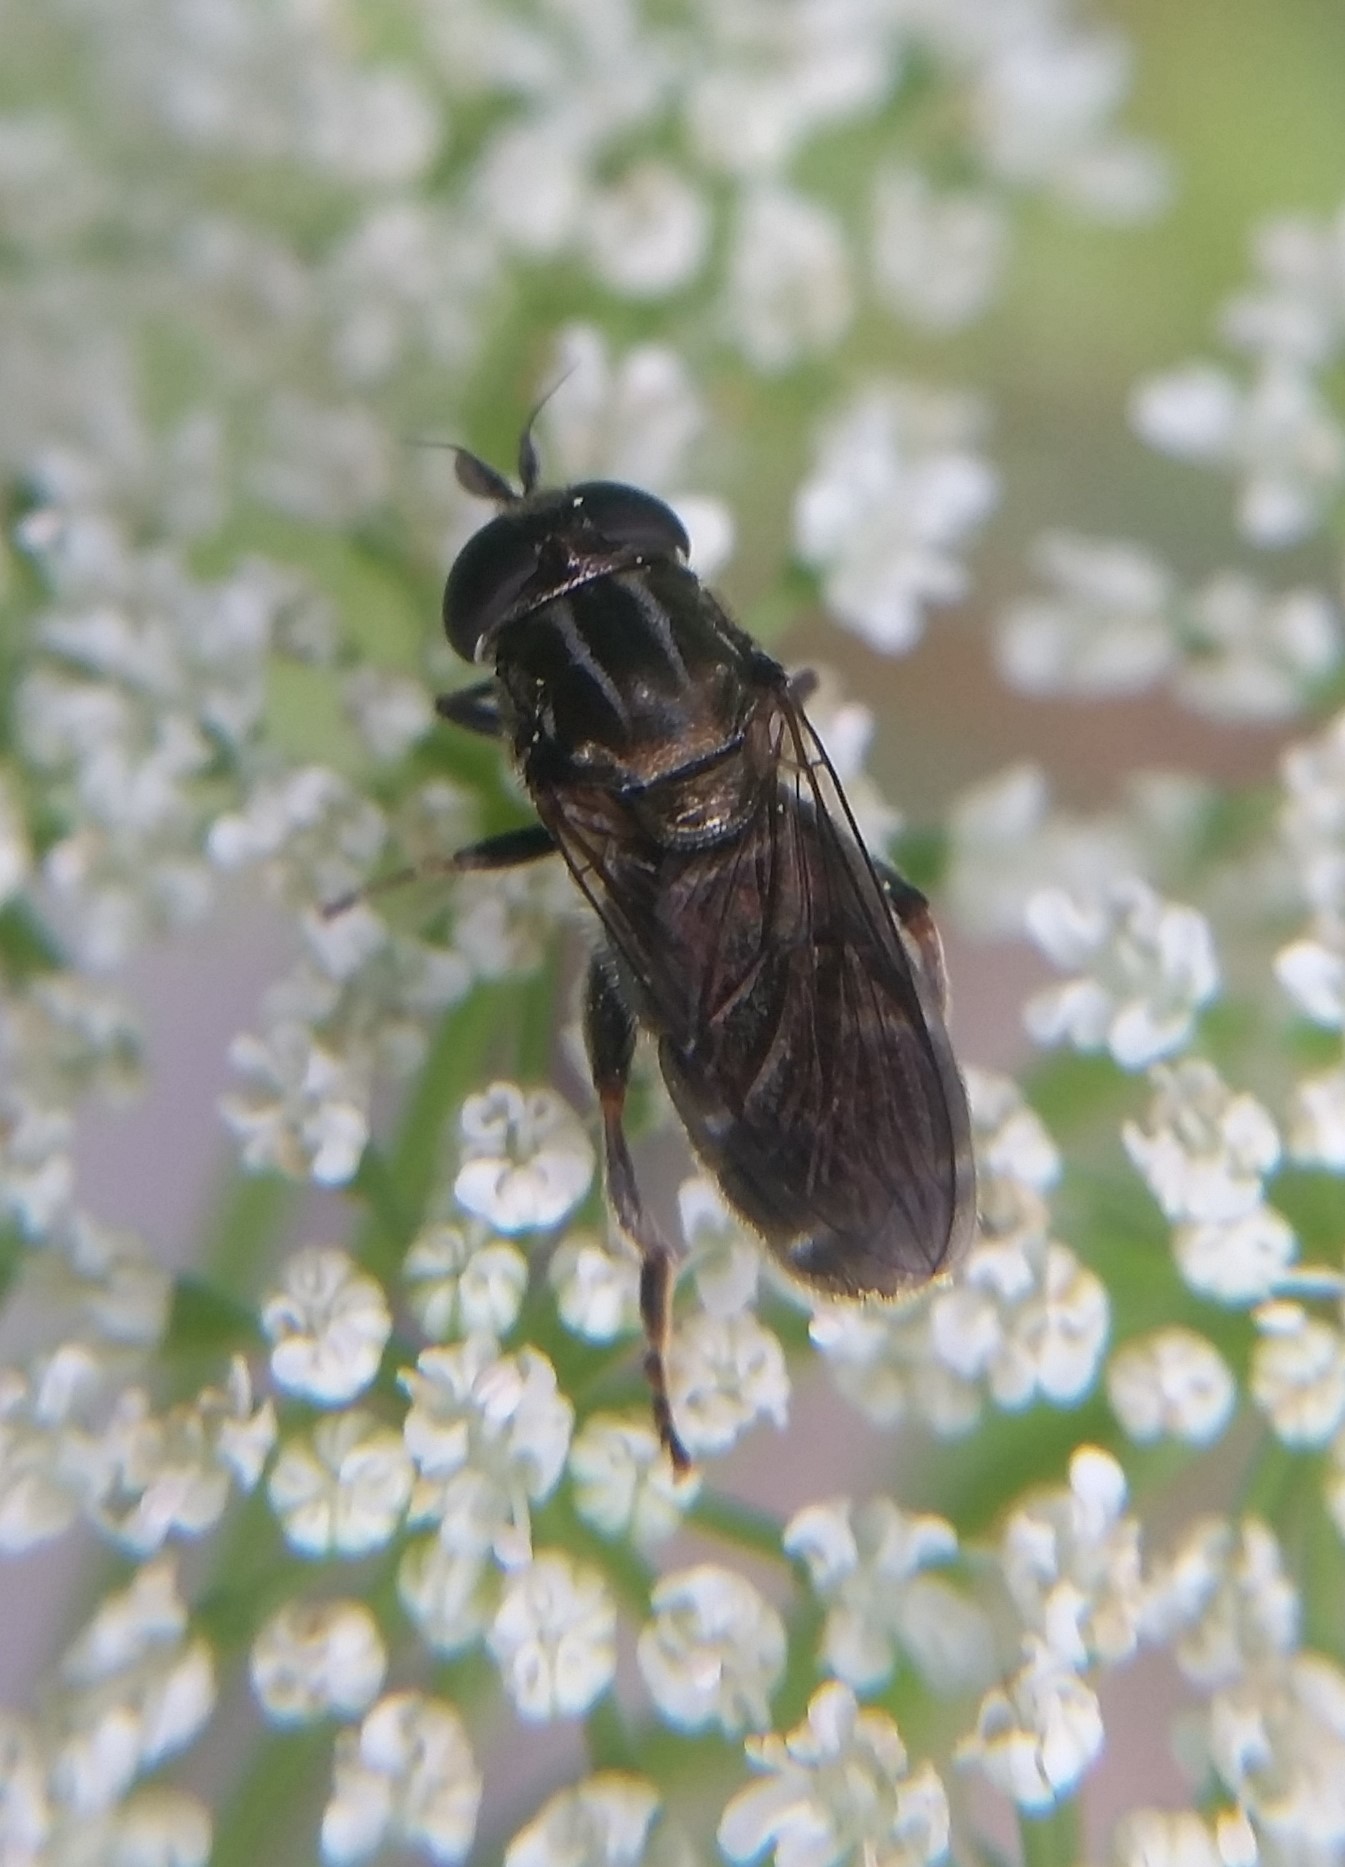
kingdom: Animalia
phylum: Arthropoda
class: Insecta
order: Diptera
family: Syrphidae
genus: Eumerus
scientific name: Eumerus
